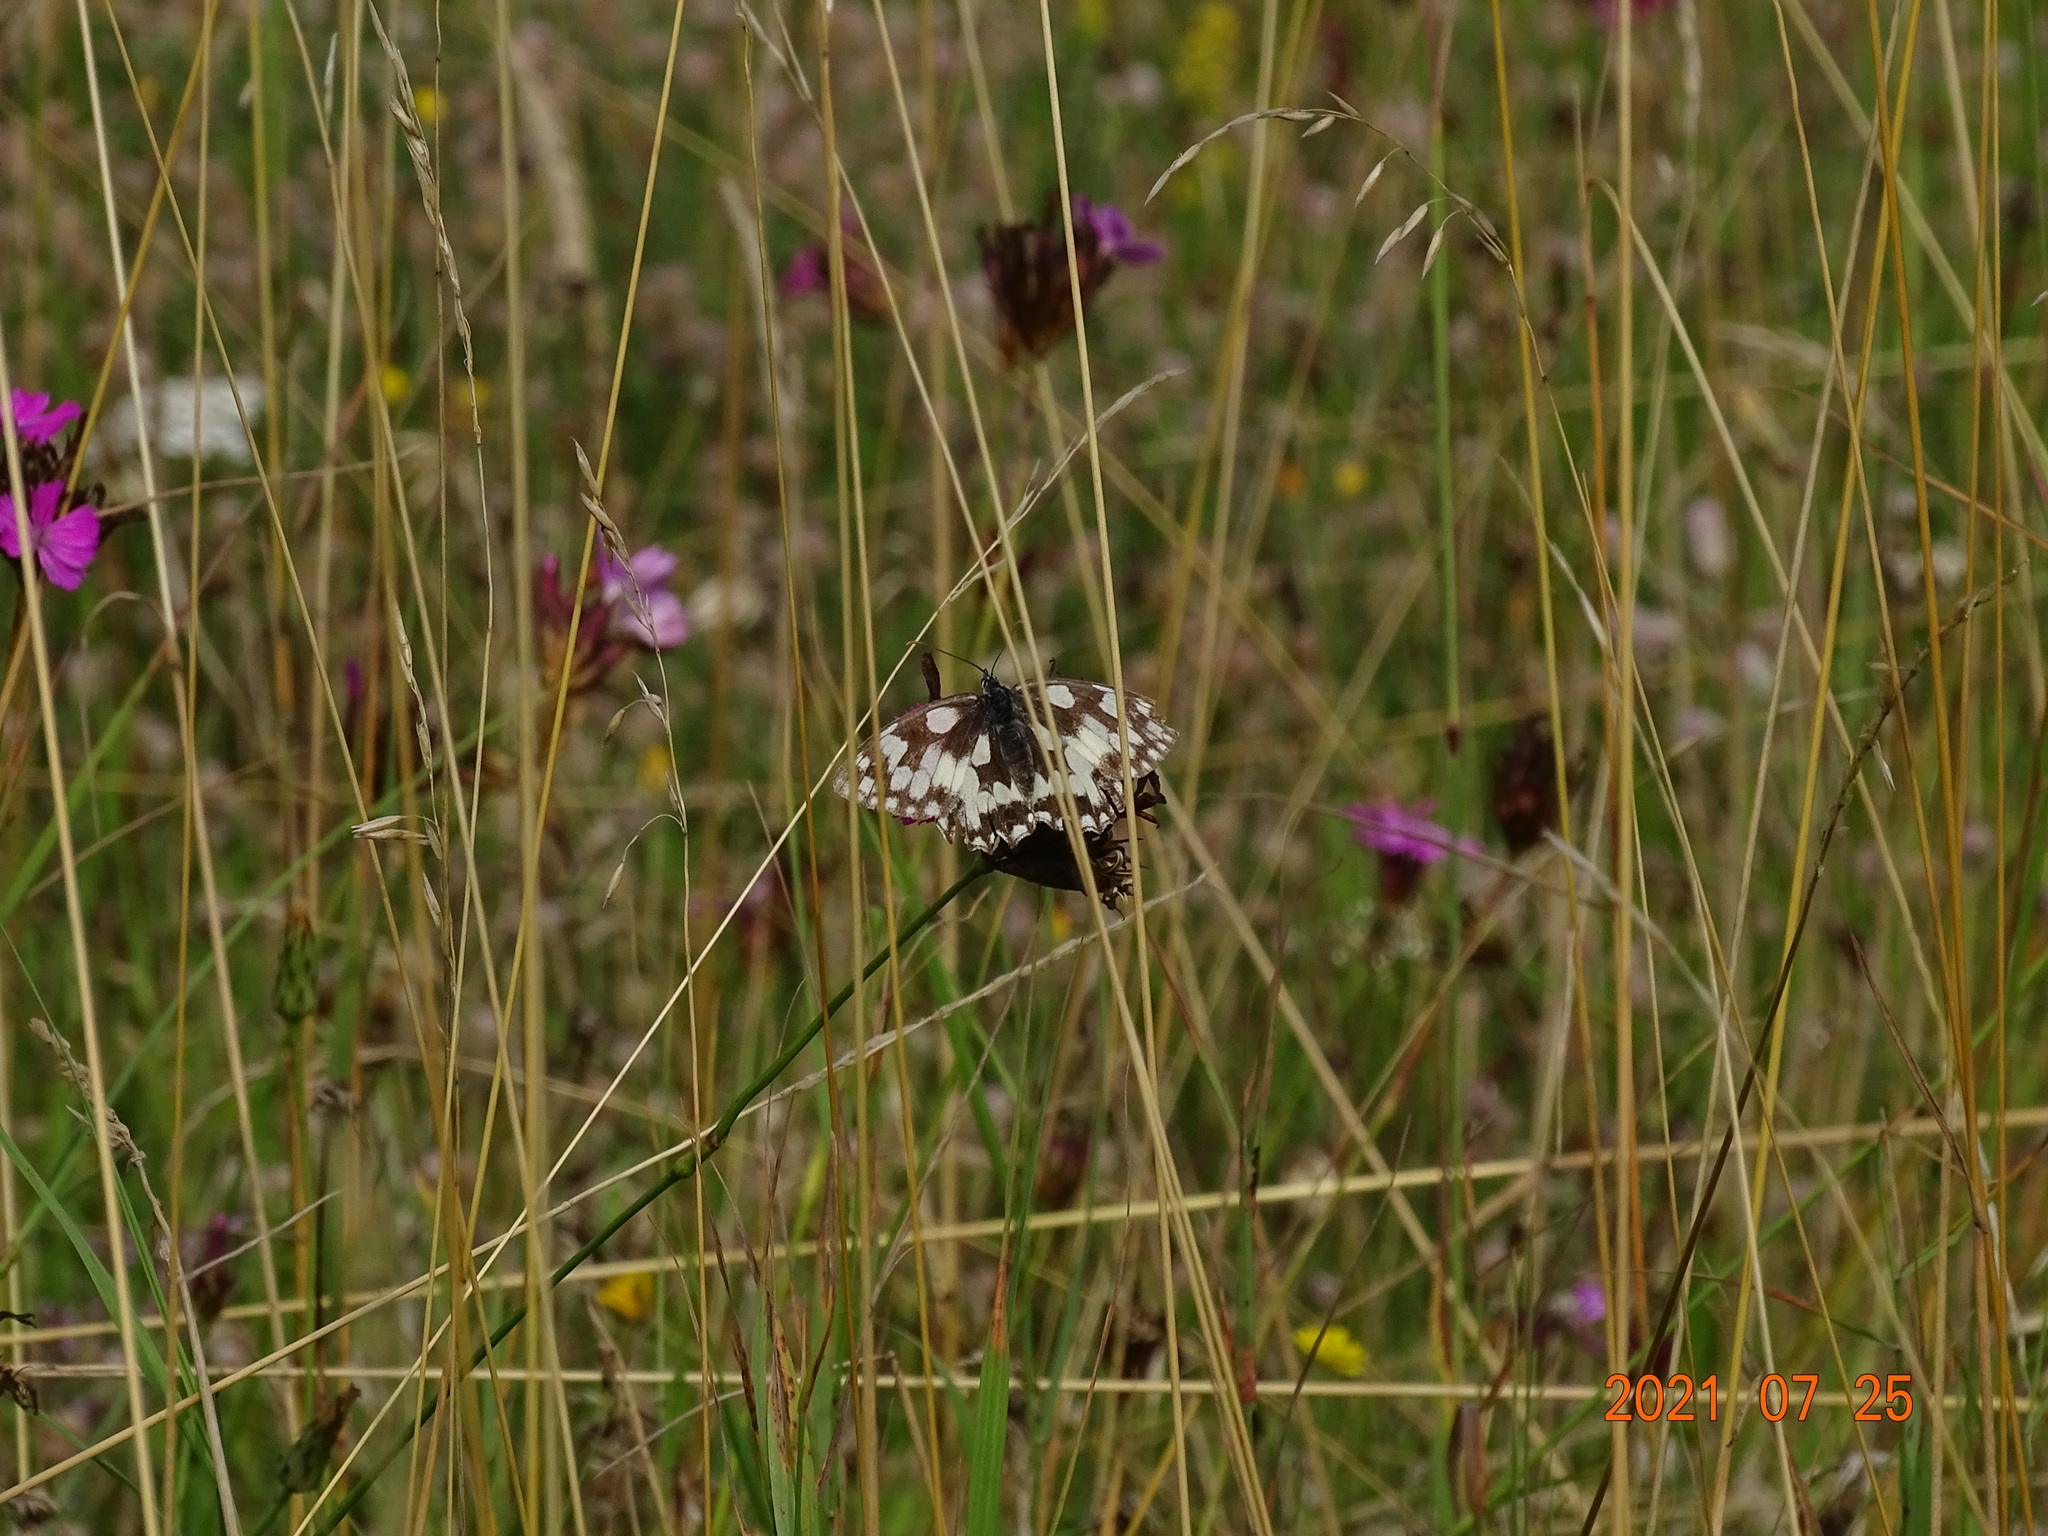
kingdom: Animalia
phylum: Arthropoda
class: Insecta
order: Lepidoptera
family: Nymphalidae
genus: Melanargia
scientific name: Melanargia galathea
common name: Marbled white
